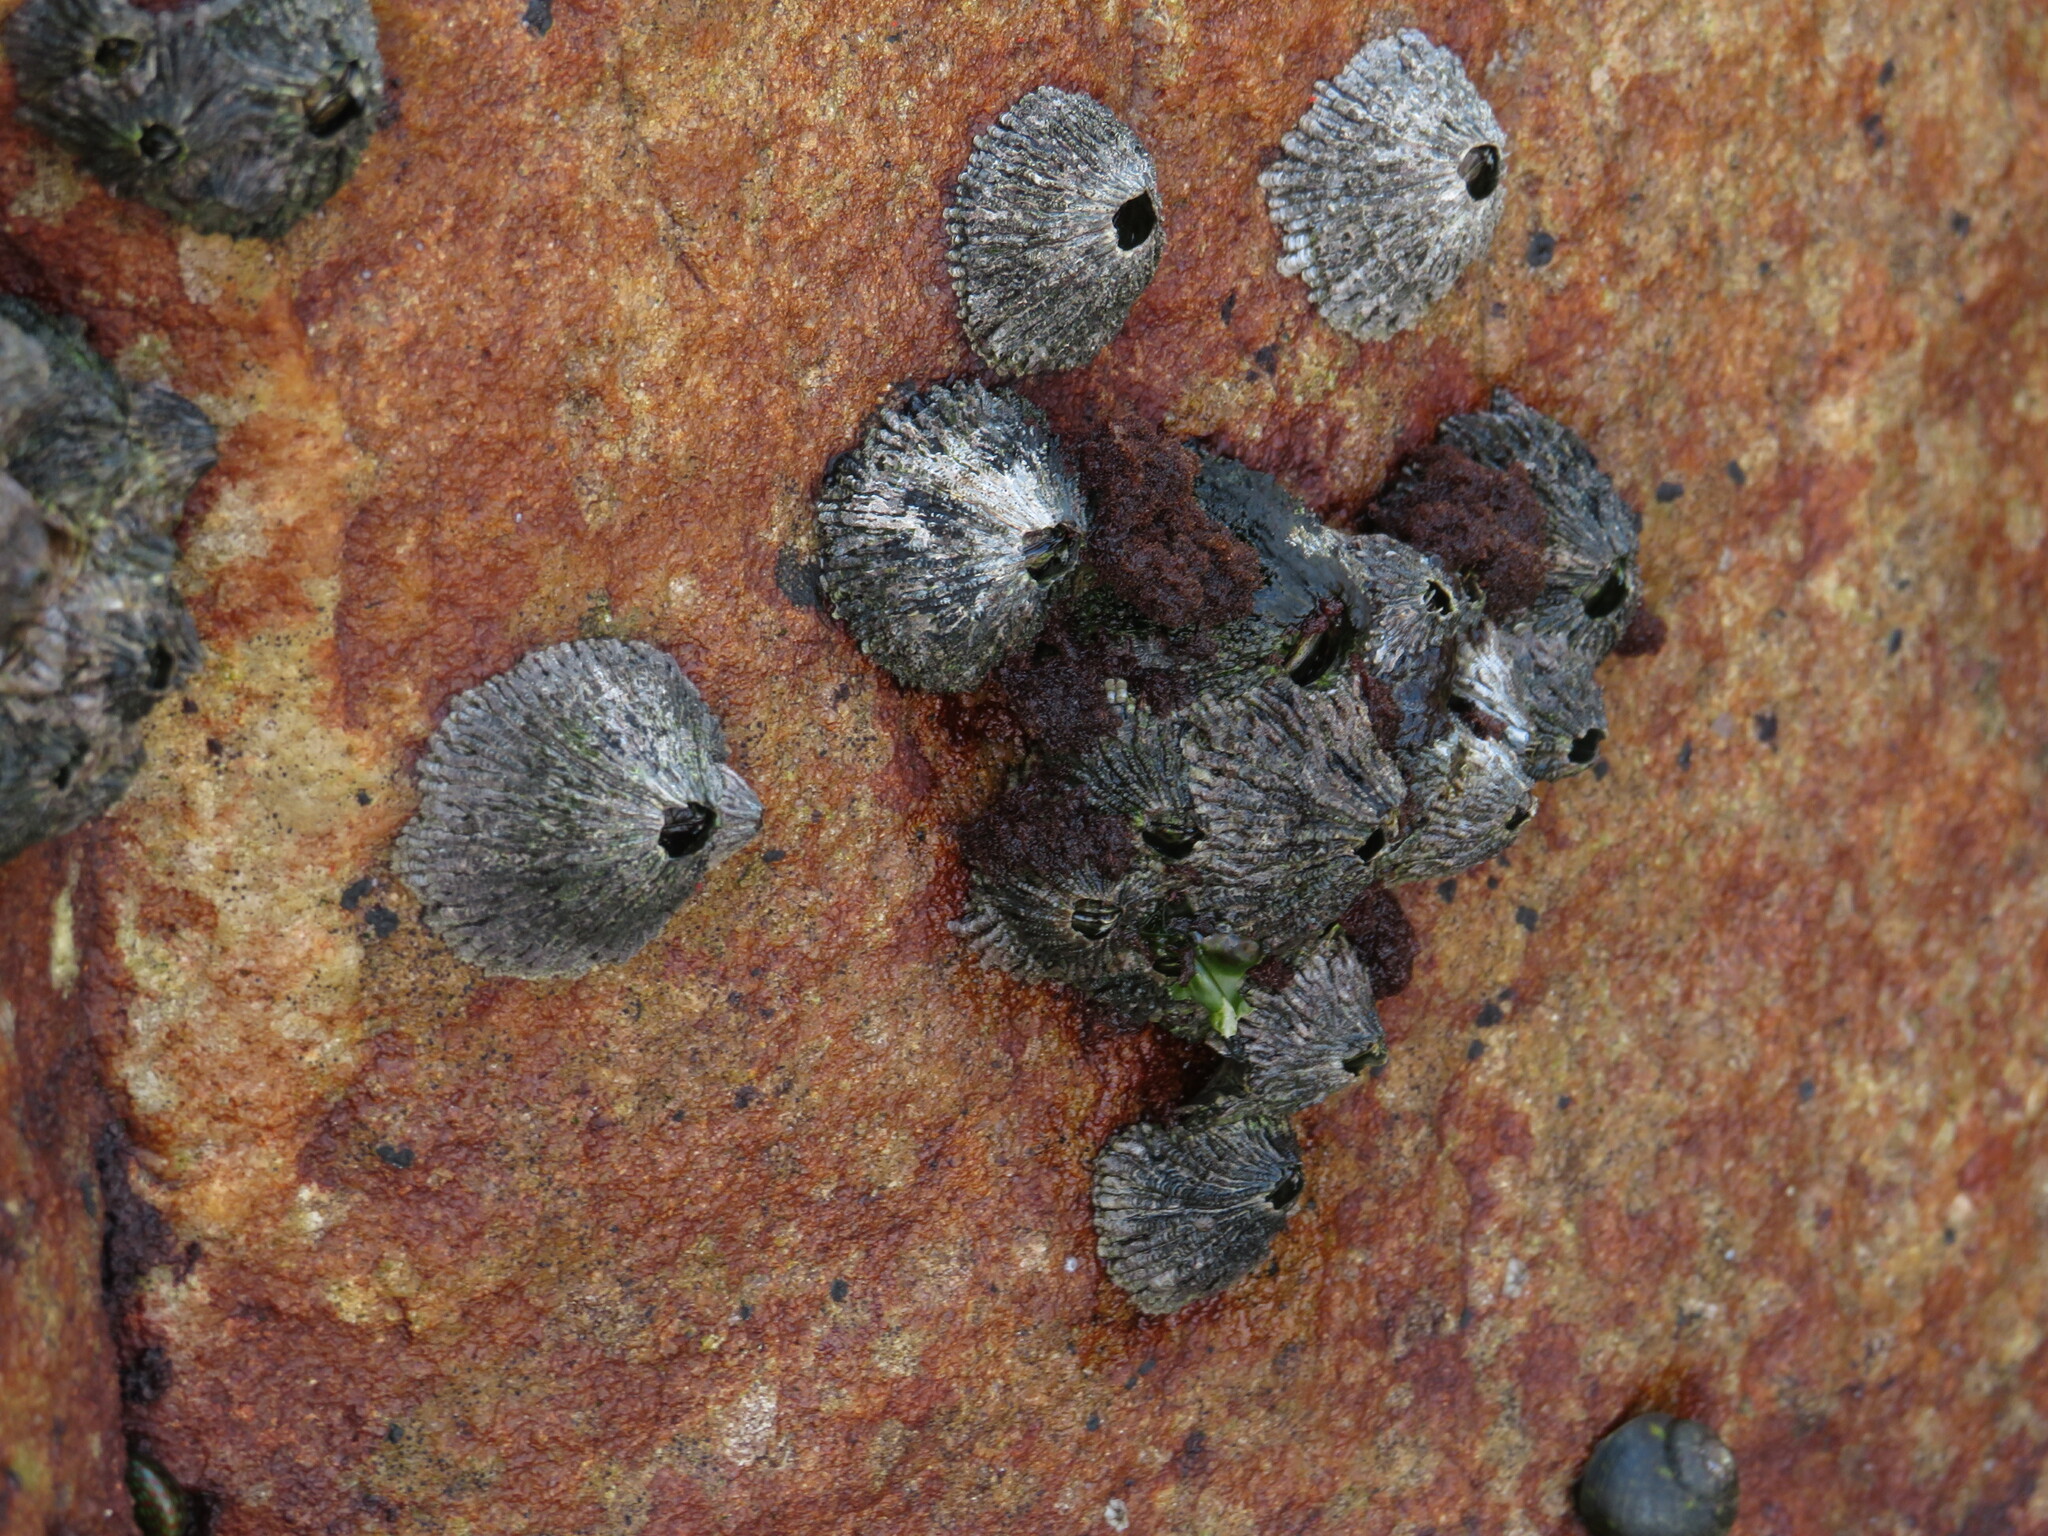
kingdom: Animalia
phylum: Arthropoda
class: Maxillopoda
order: Sessilia
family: Tetraclitidae
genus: Tetraclita
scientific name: Tetraclita serrata
